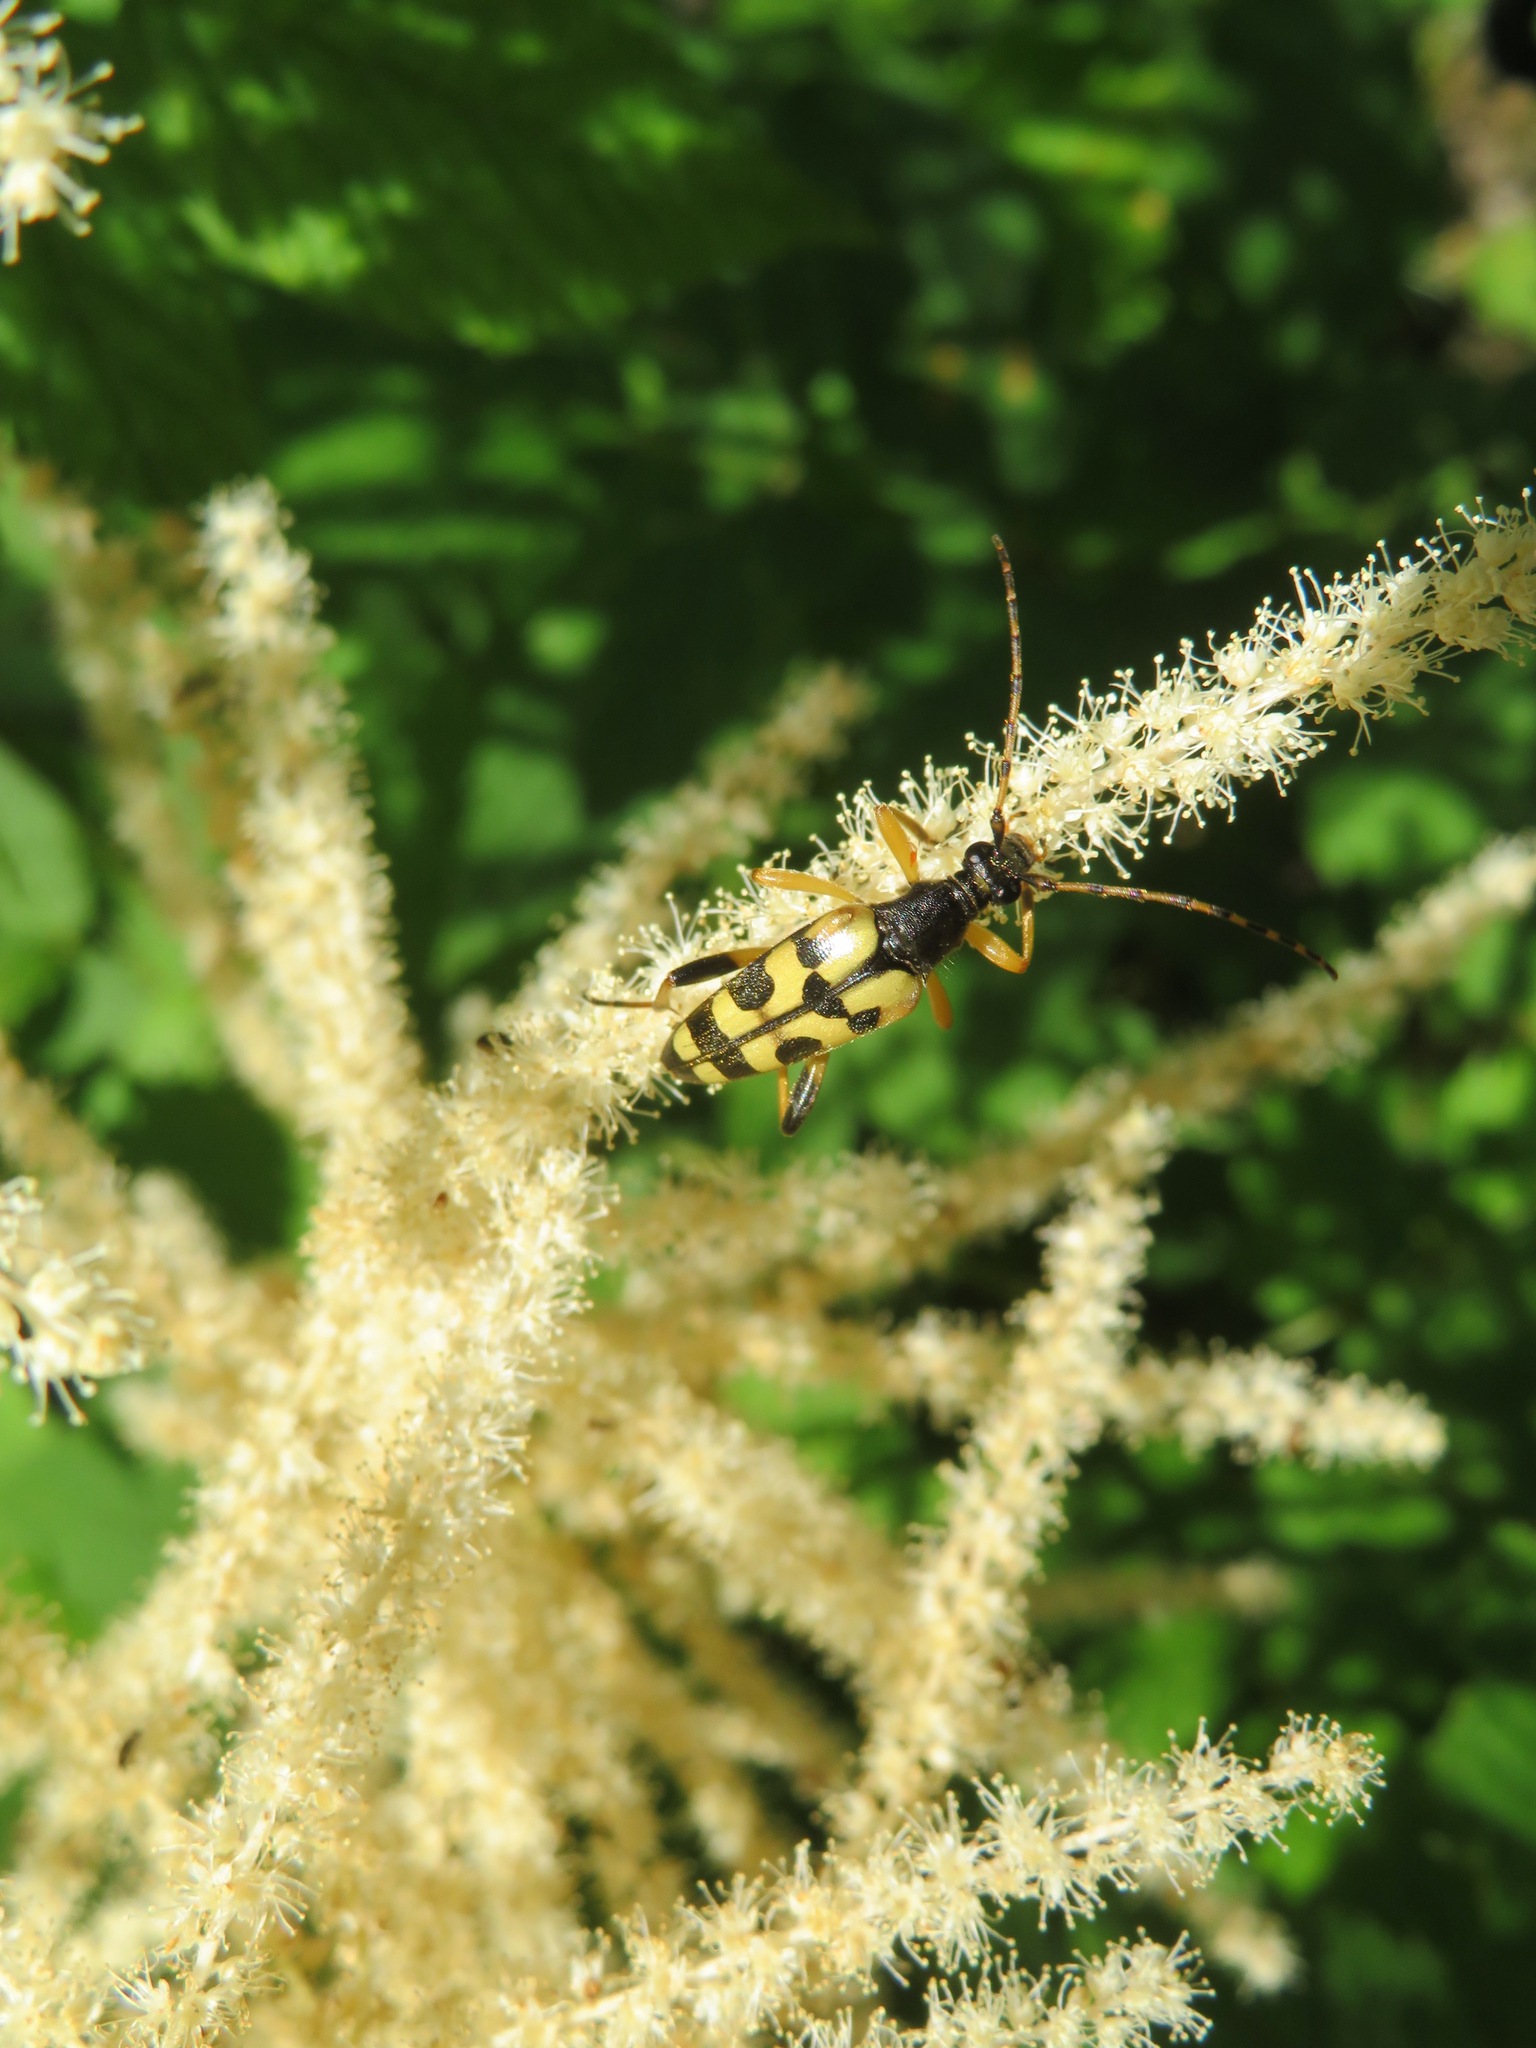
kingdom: Animalia
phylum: Arthropoda
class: Insecta
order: Coleoptera
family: Cerambycidae
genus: Rutpela
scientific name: Rutpela maculata
